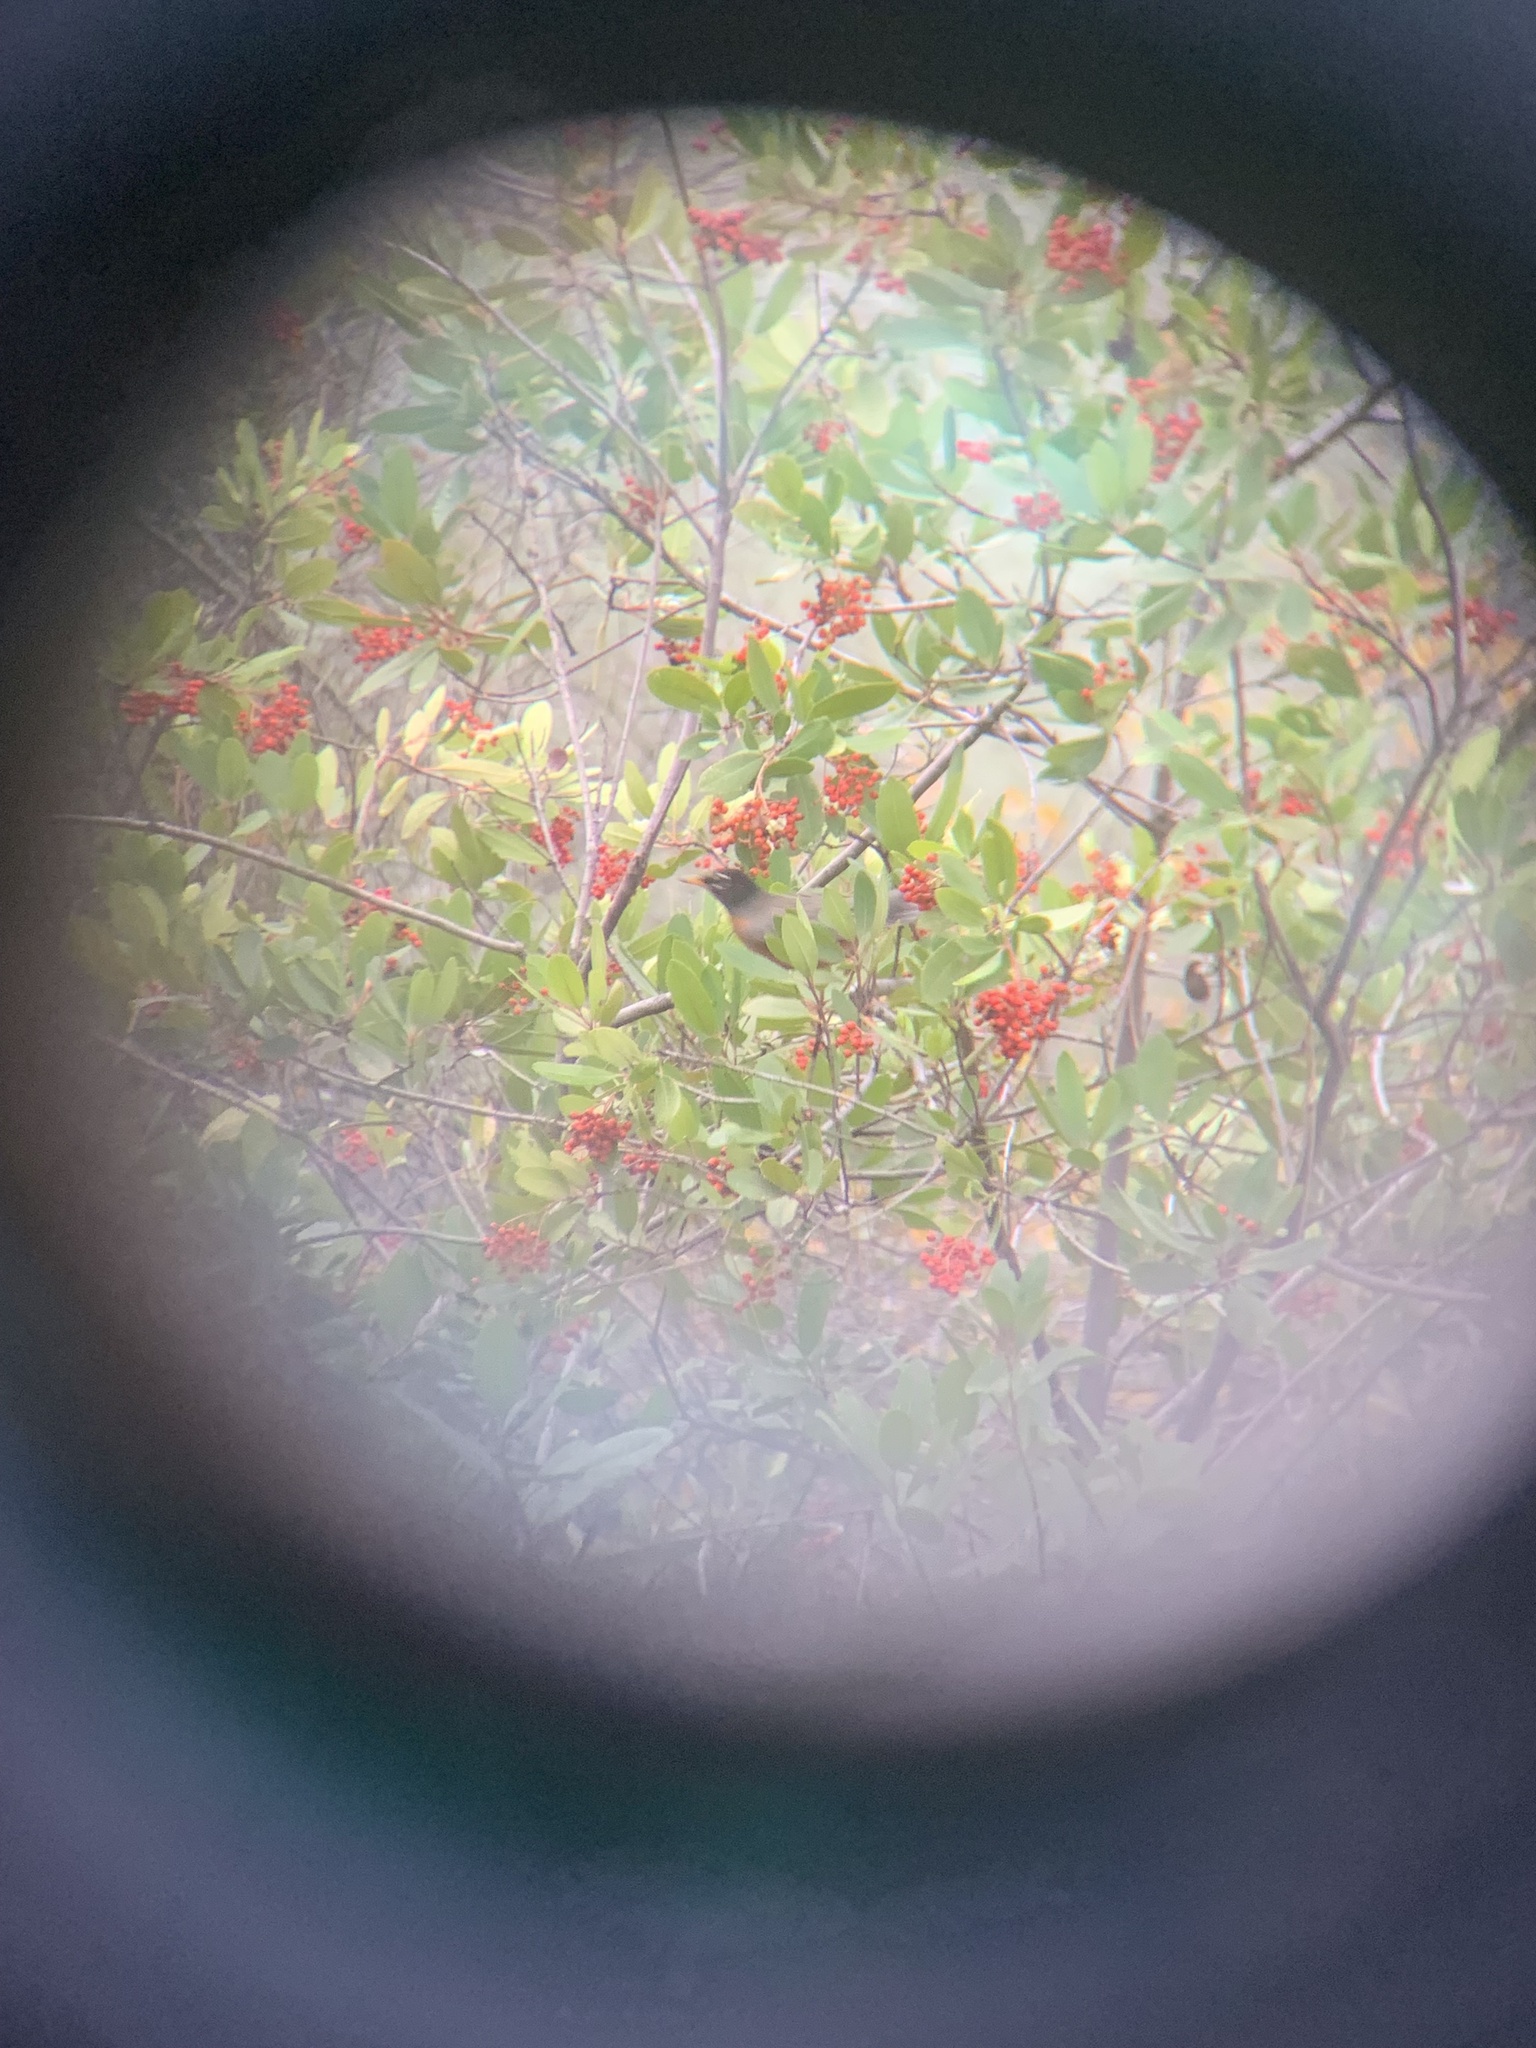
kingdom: Animalia
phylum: Chordata
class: Aves
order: Passeriformes
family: Turdidae
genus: Turdus
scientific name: Turdus migratorius
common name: American robin
